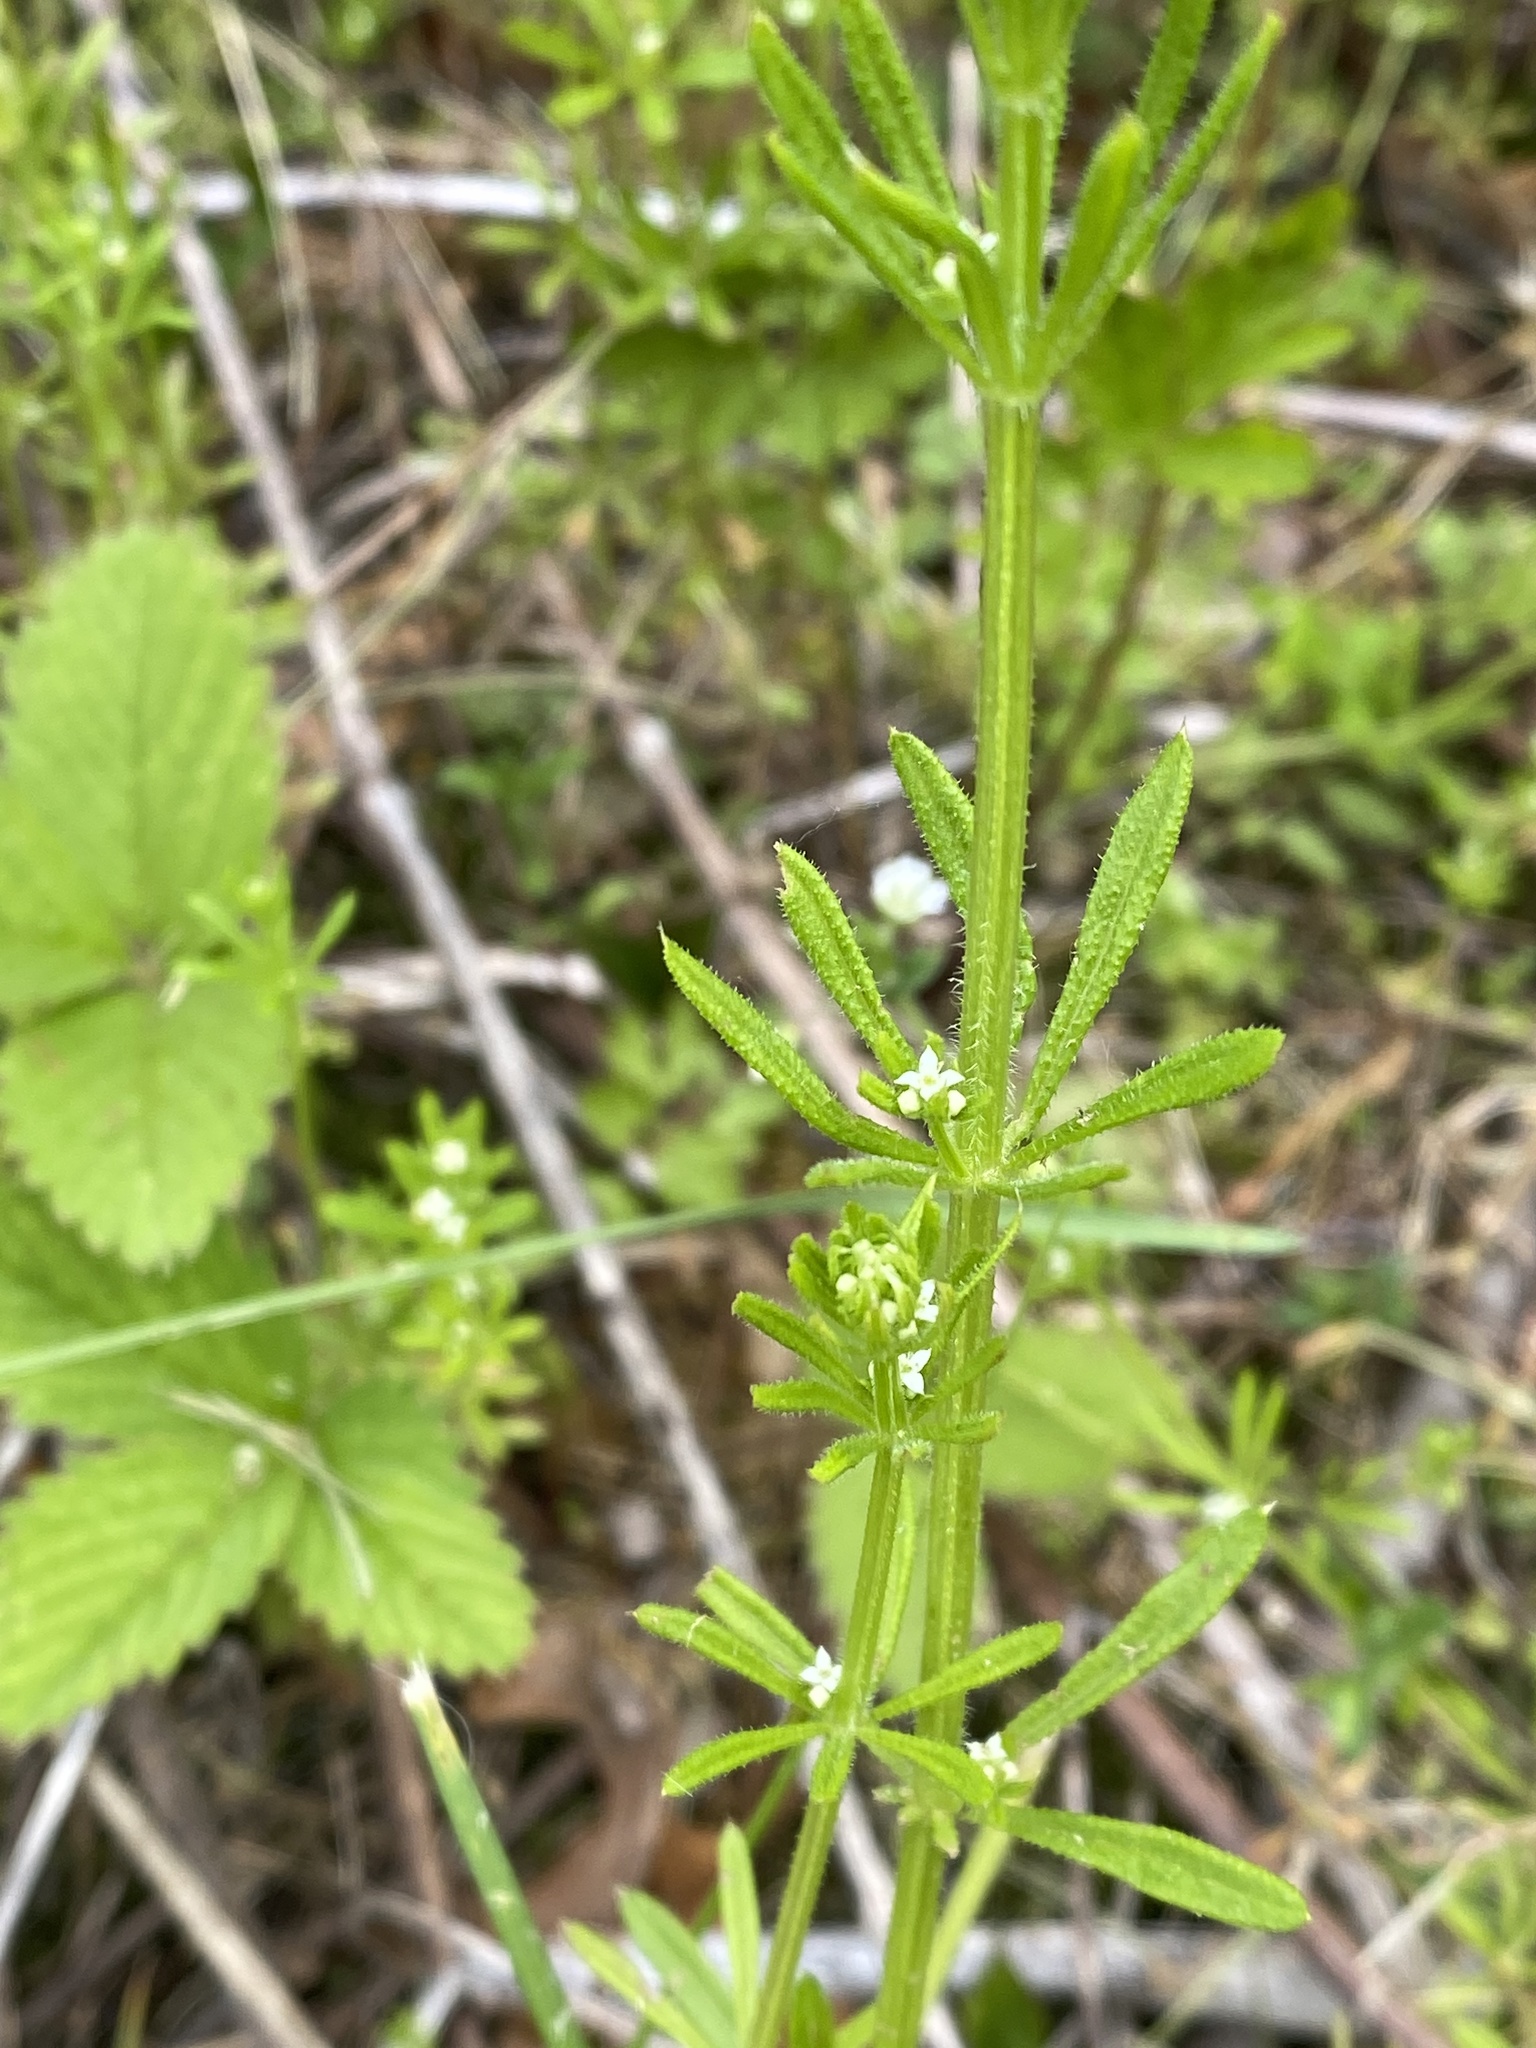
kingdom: Plantae
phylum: Tracheophyta
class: Magnoliopsida
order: Gentianales
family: Rubiaceae
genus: Galium
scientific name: Galium aparine
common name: Cleavers
